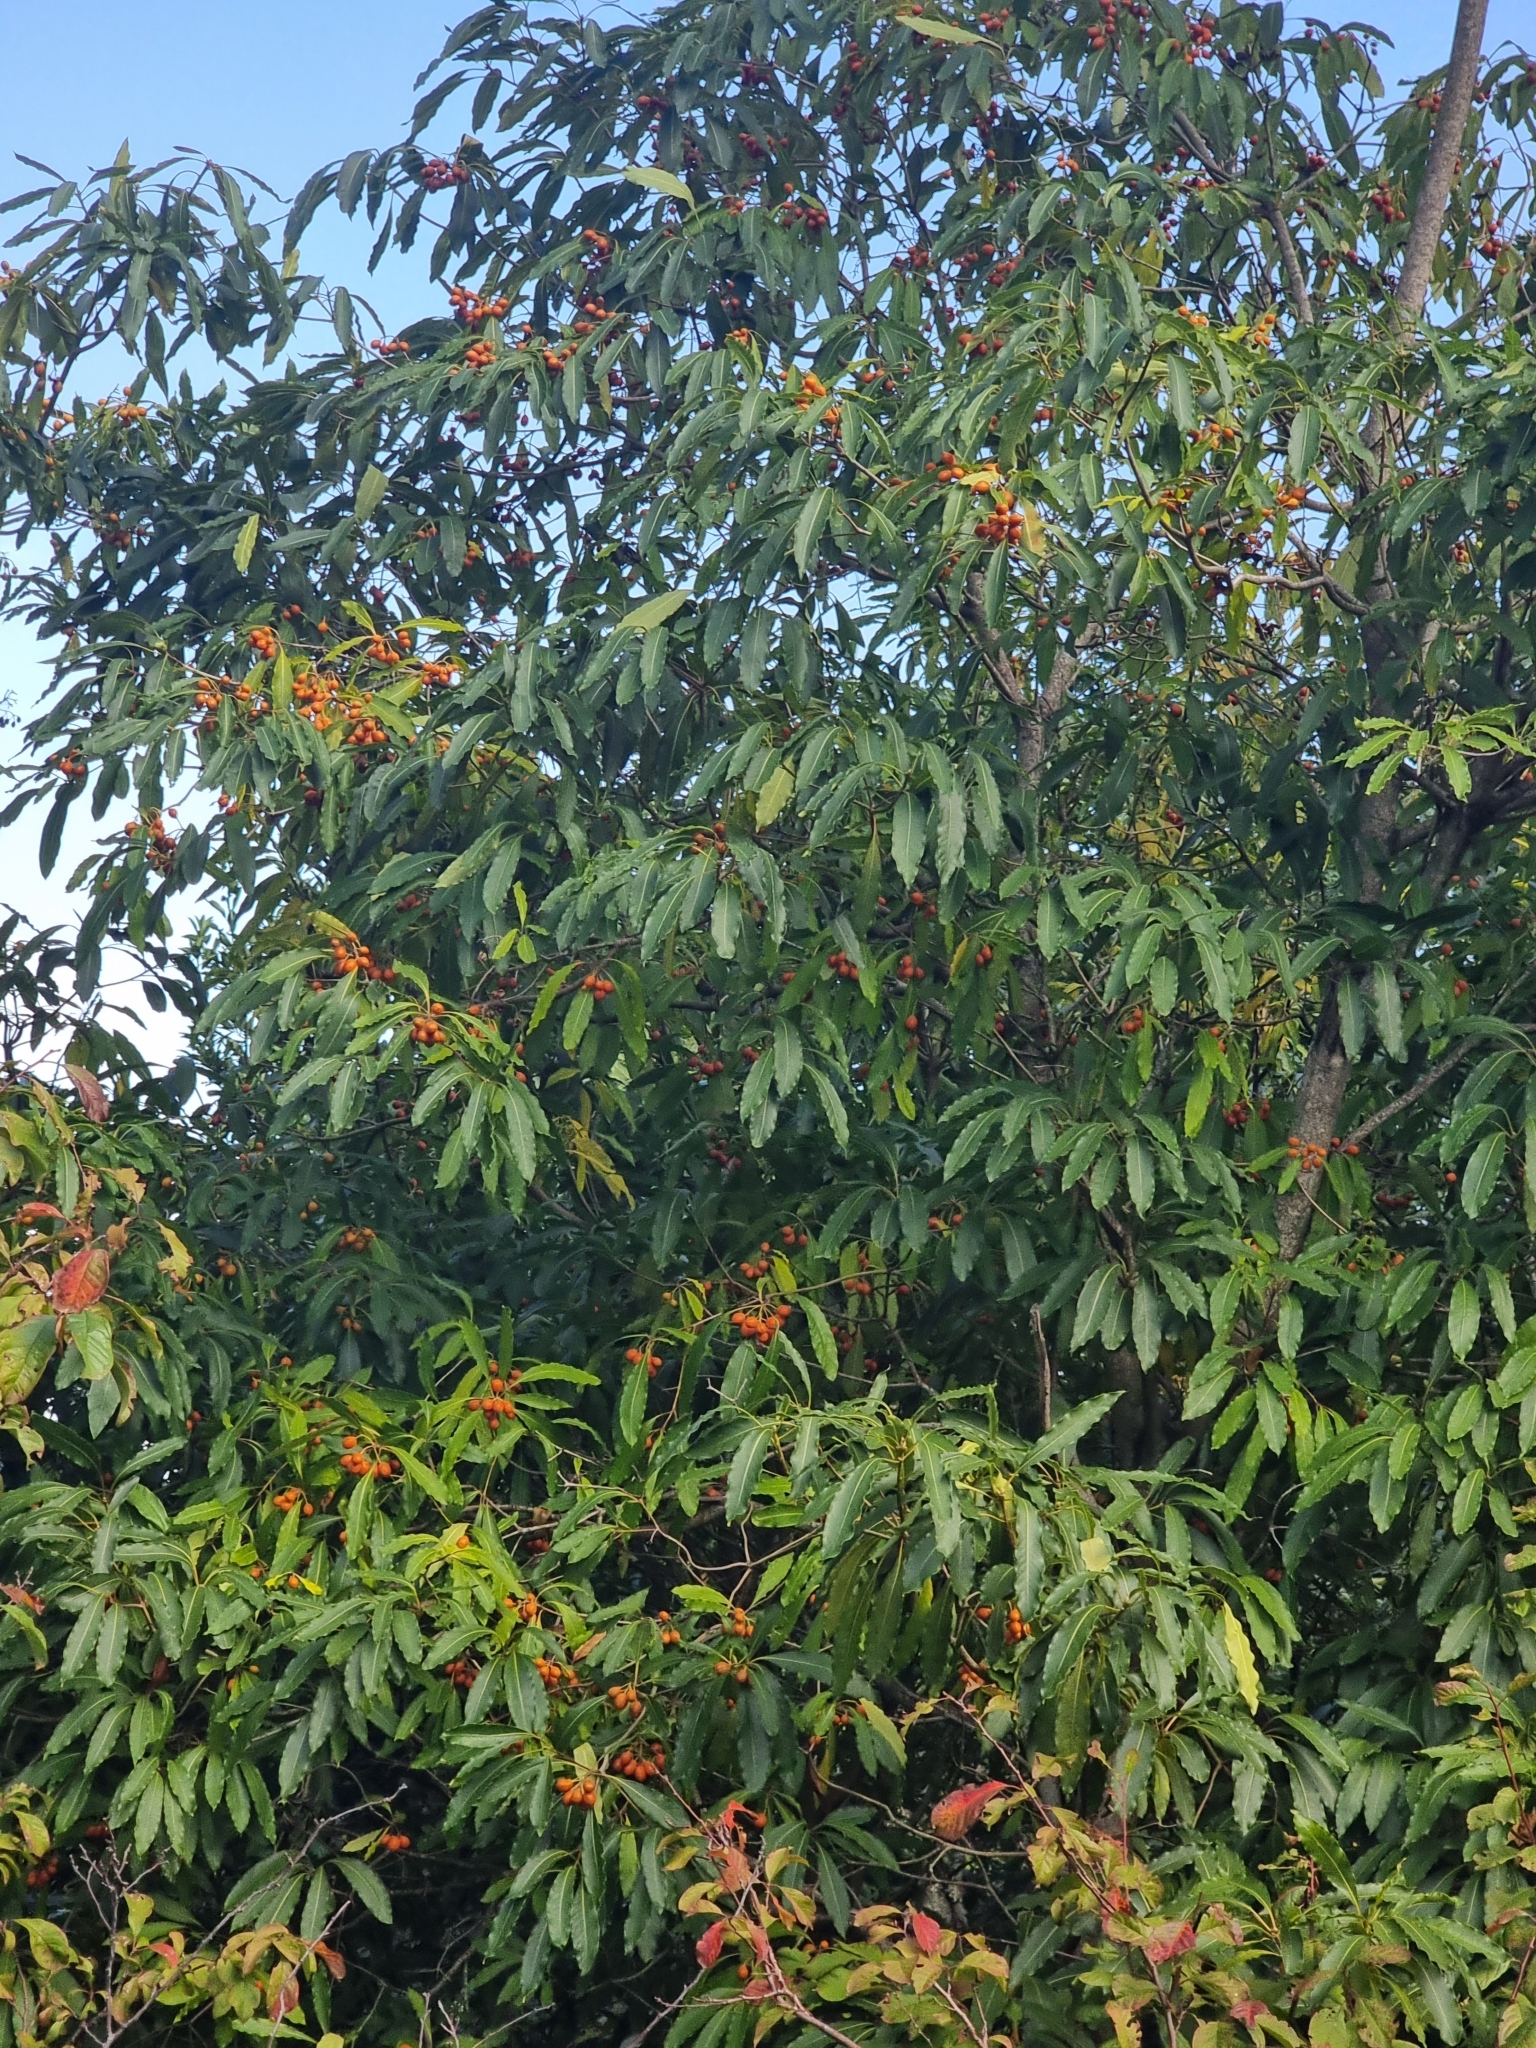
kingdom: Plantae
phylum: Tracheophyta
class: Magnoliopsida
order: Apiales
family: Pittosporaceae
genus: Pittosporum
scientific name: Pittosporum undulatum
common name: Australian cheesewood
